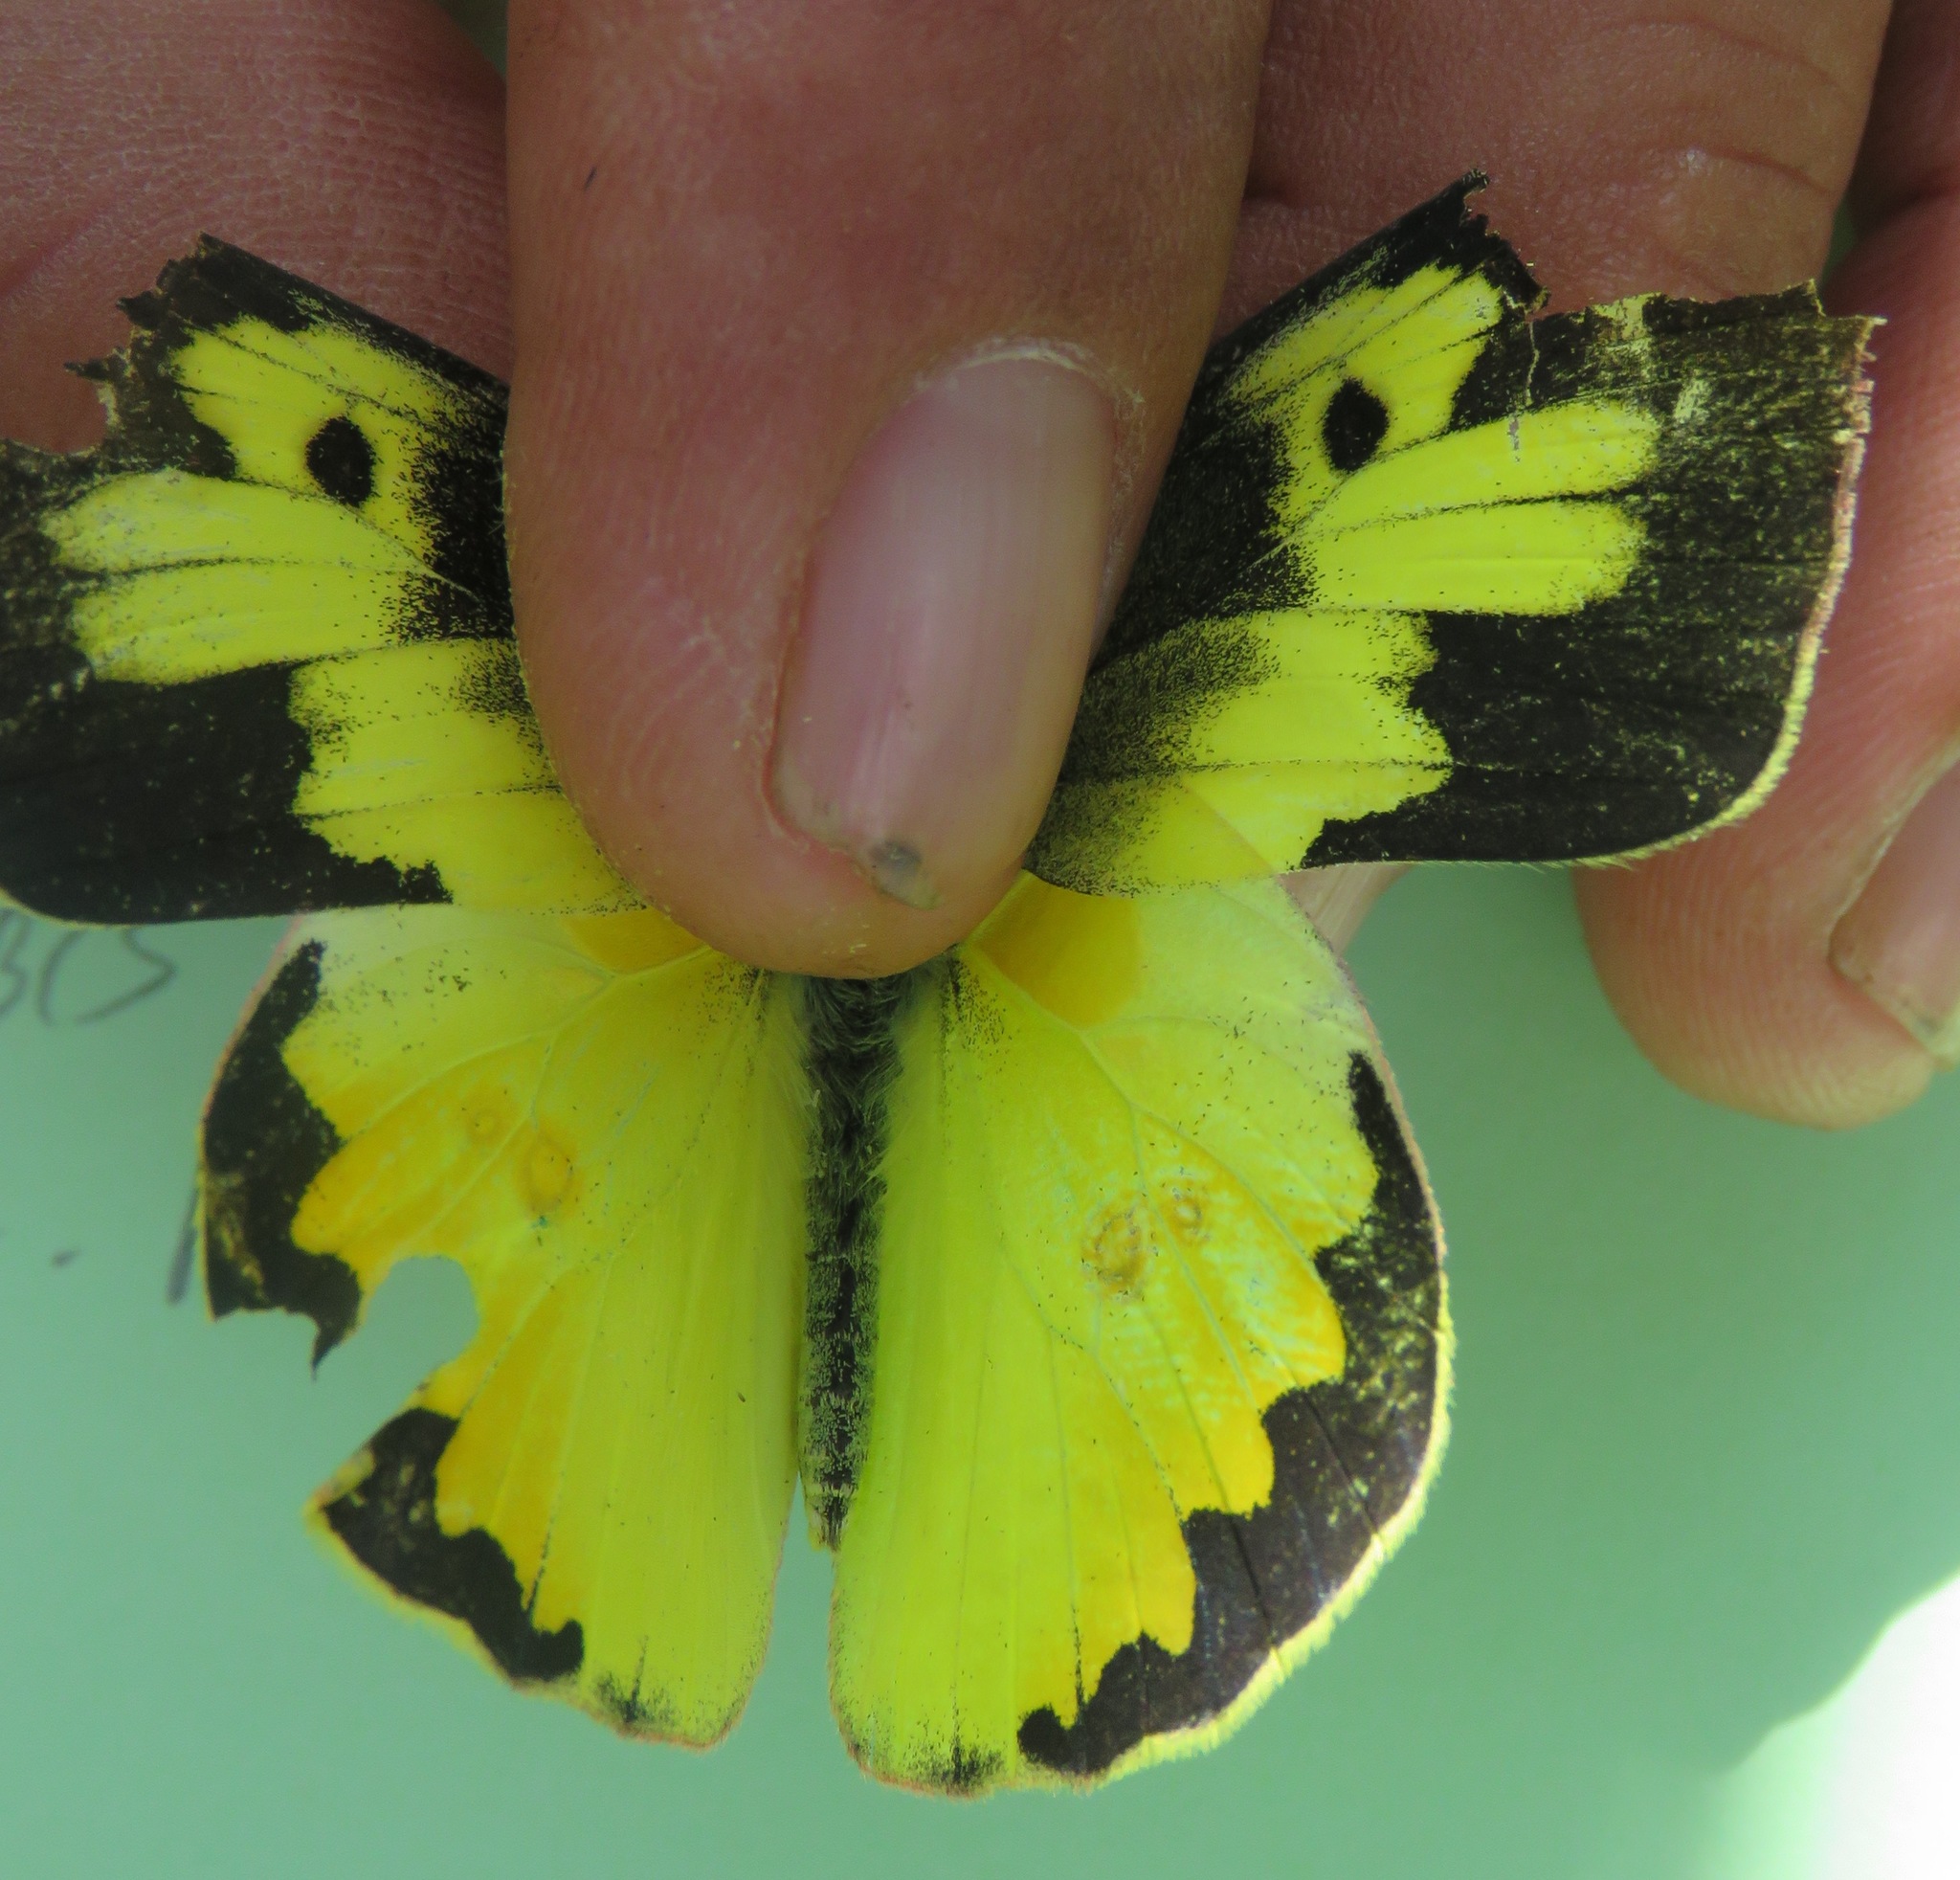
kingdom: Animalia
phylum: Arthropoda
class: Insecta
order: Lepidoptera
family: Pieridae
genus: Zerene
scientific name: Zerene cesonia
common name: Southern dogface
